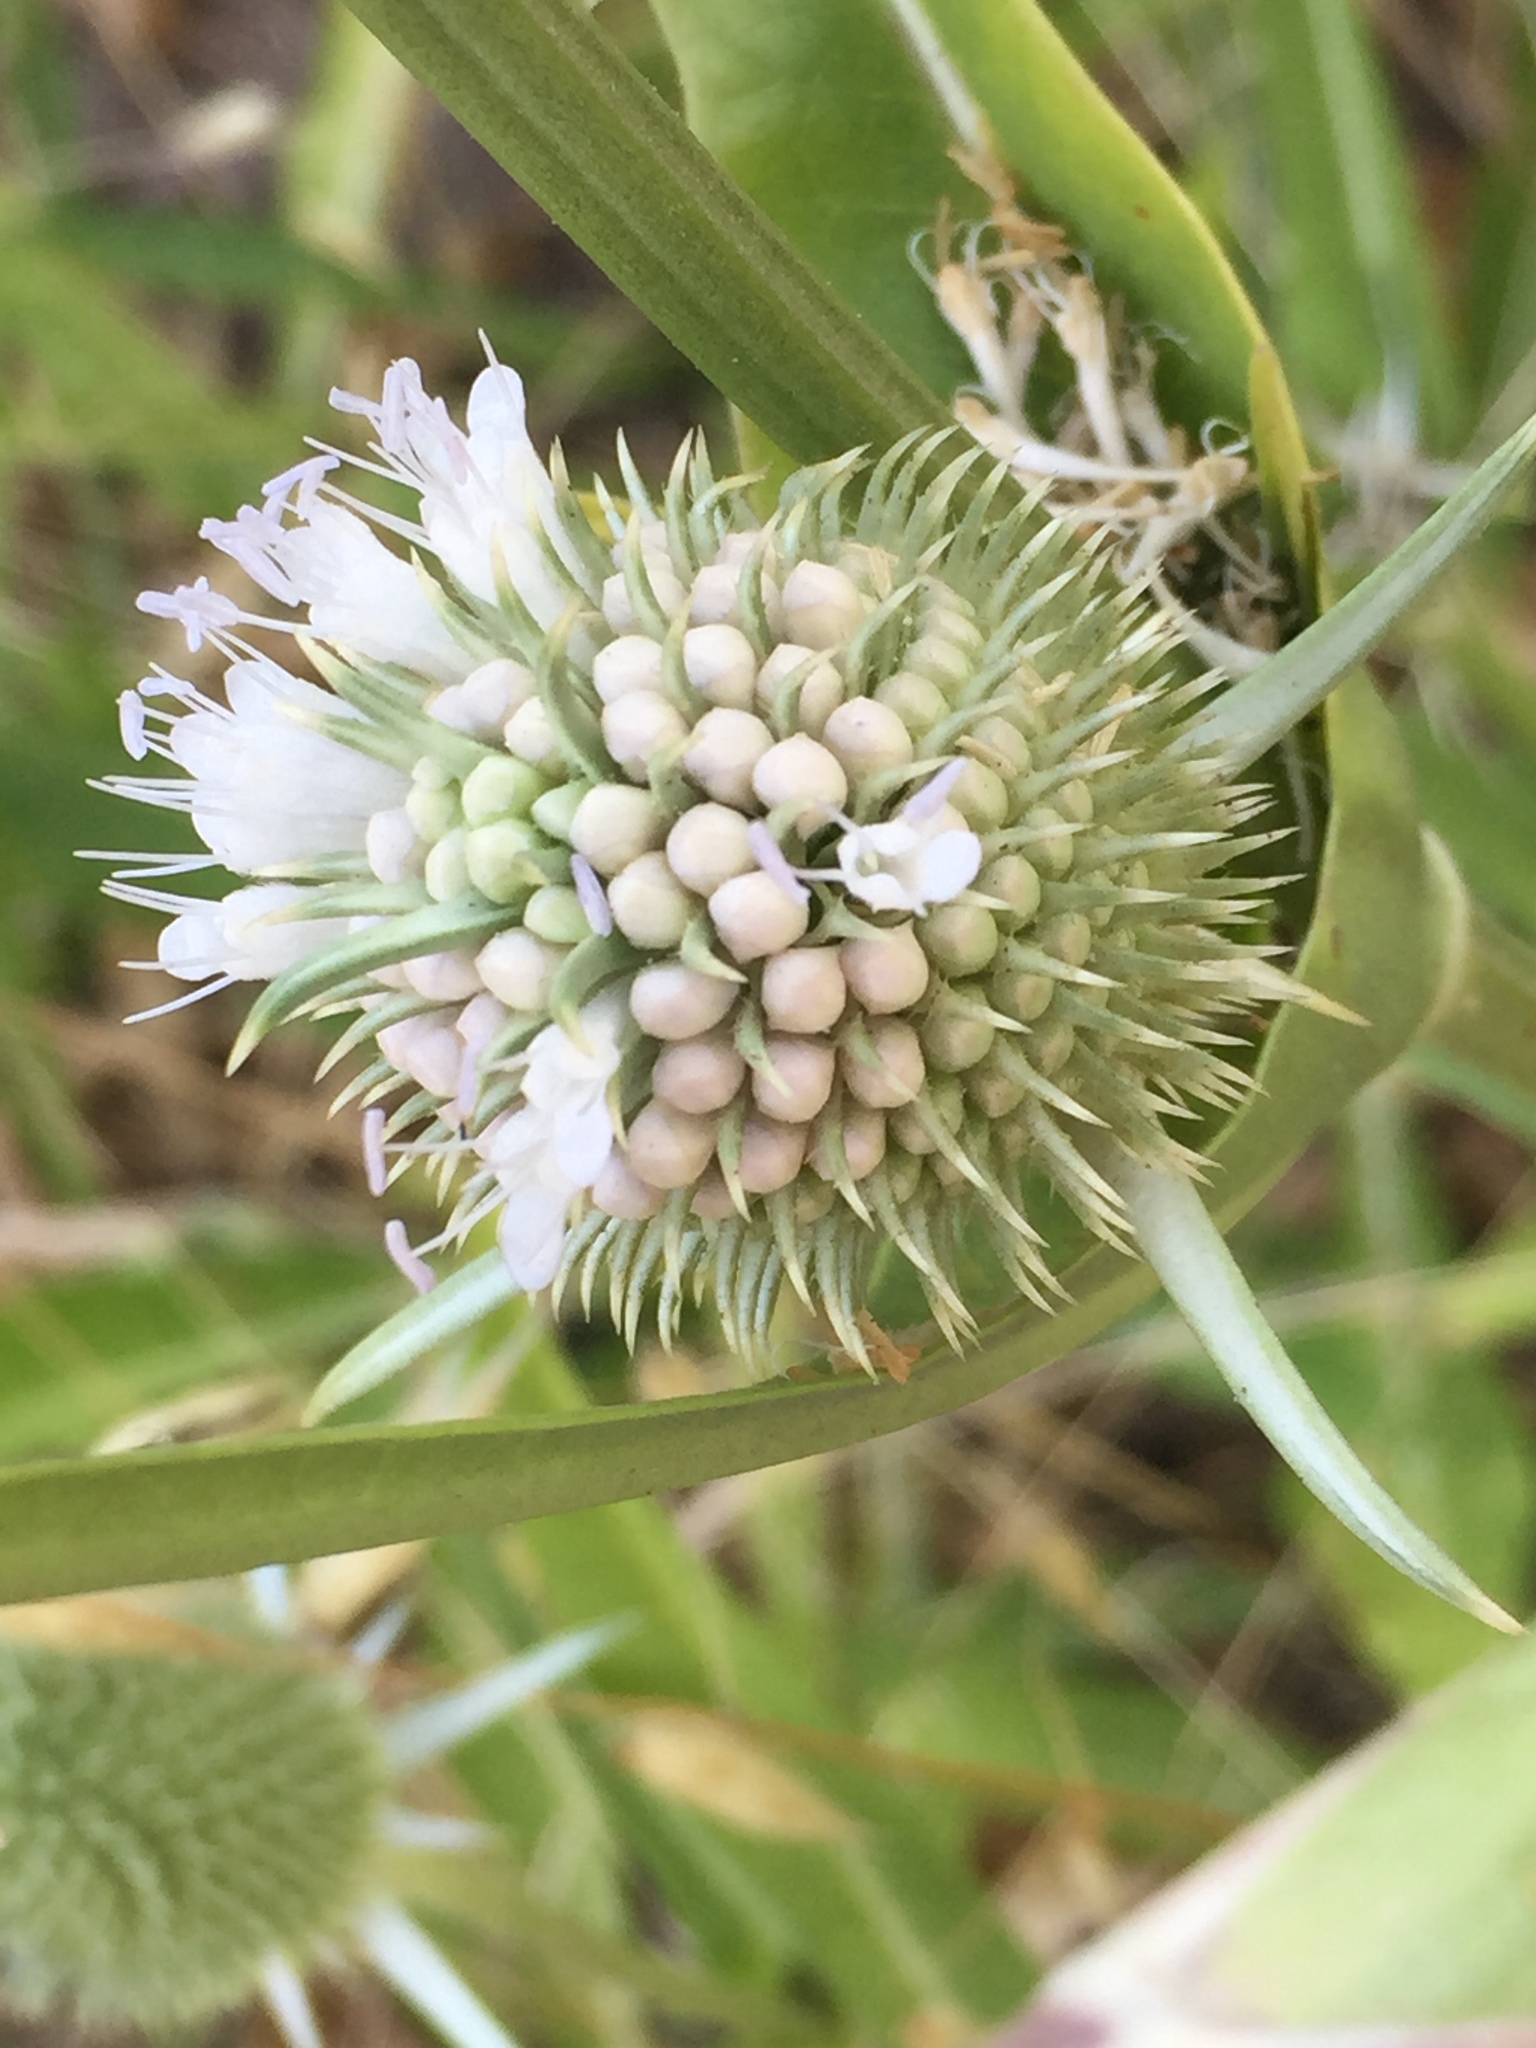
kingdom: Plantae
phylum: Tracheophyta
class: Magnoliopsida
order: Dipsacales
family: Caprifoliaceae
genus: Dipsacus
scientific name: Dipsacus sativus
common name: Fuller's teasel
